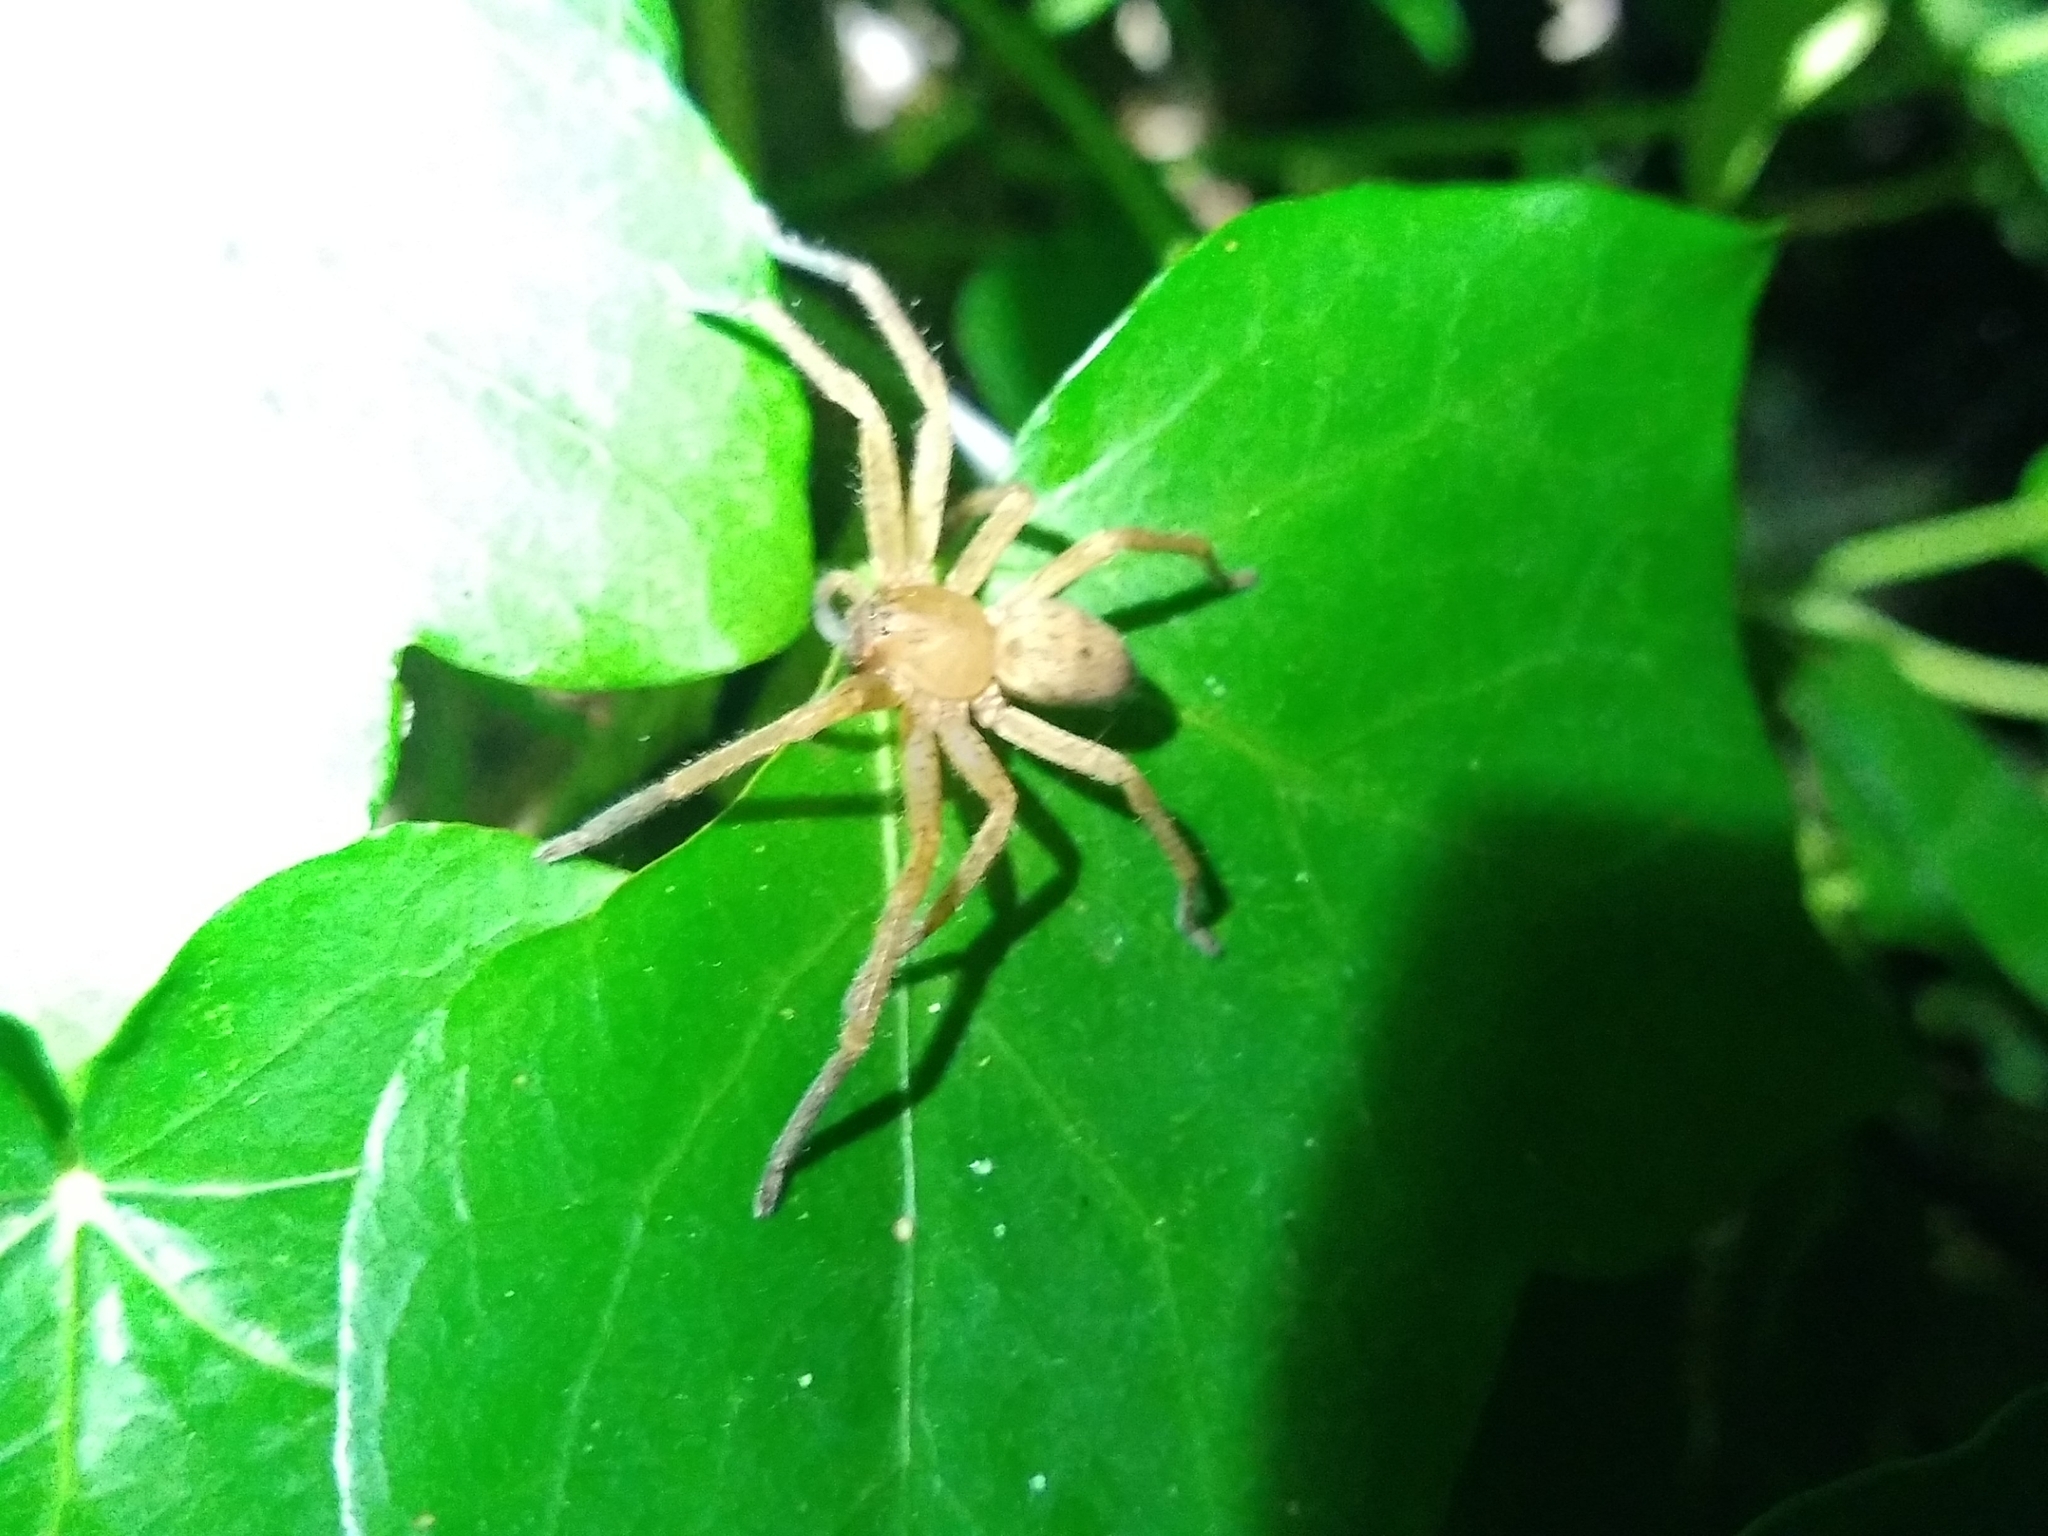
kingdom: Animalia
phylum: Arthropoda
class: Arachnida
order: Araneae
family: Sparassidae
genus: Olios
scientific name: Olios argelasius
